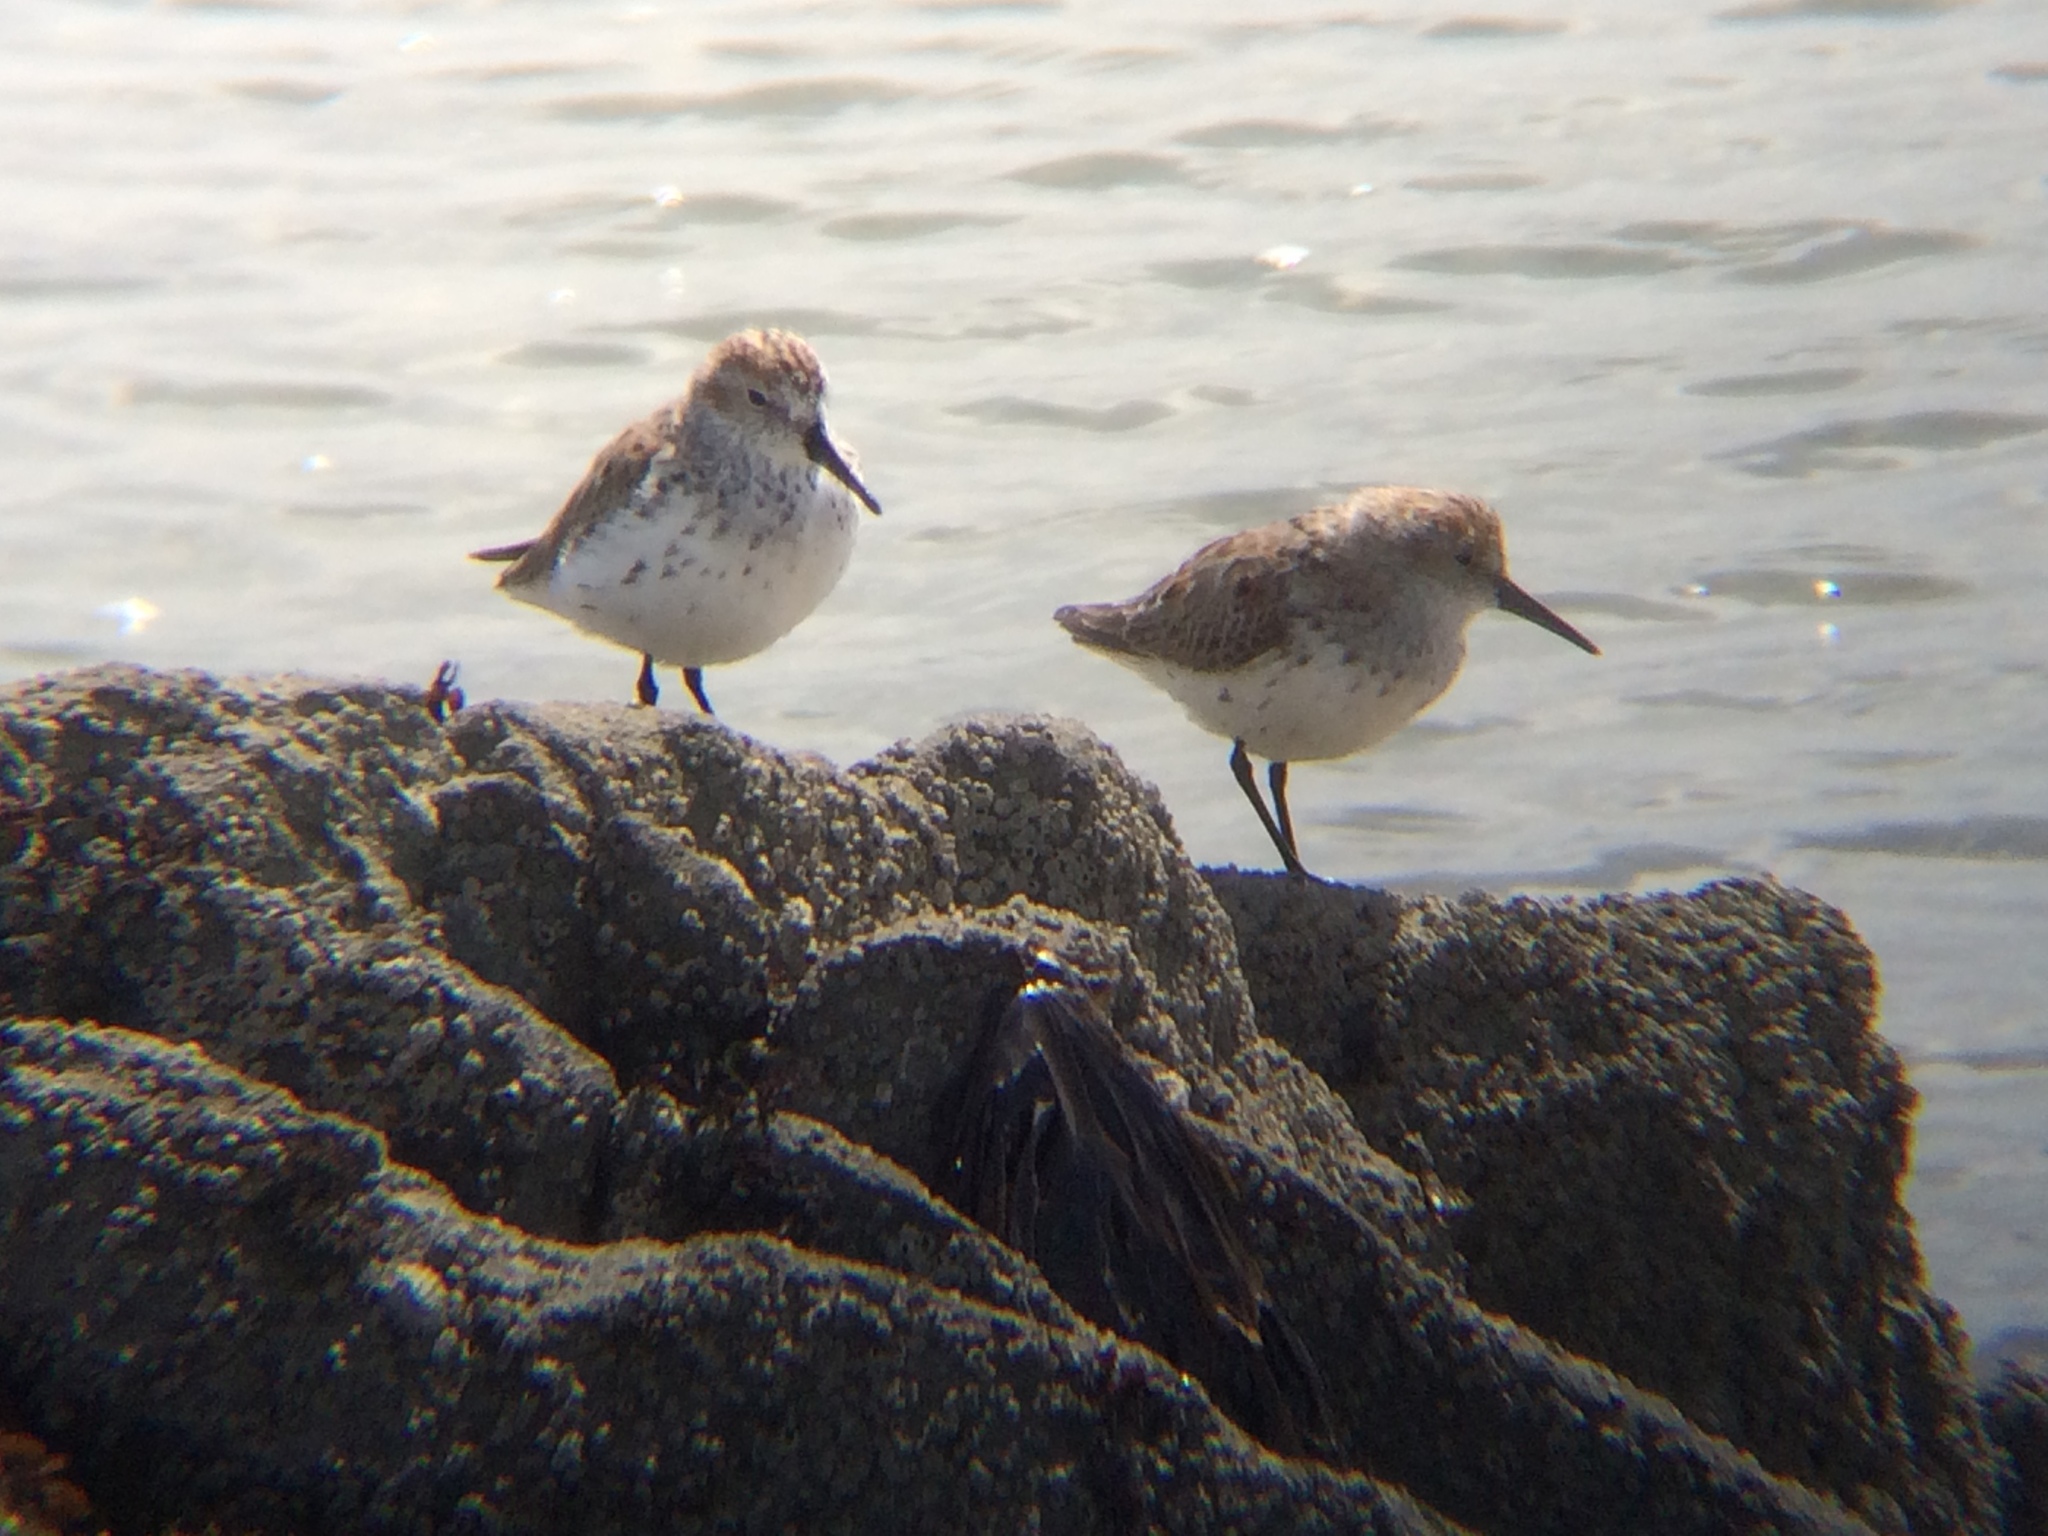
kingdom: Animalia
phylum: Chordata
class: Aves
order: Charadriiformes
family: Scolopacidae
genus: Calidris
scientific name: Calidris mauri
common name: Western sandpiper
